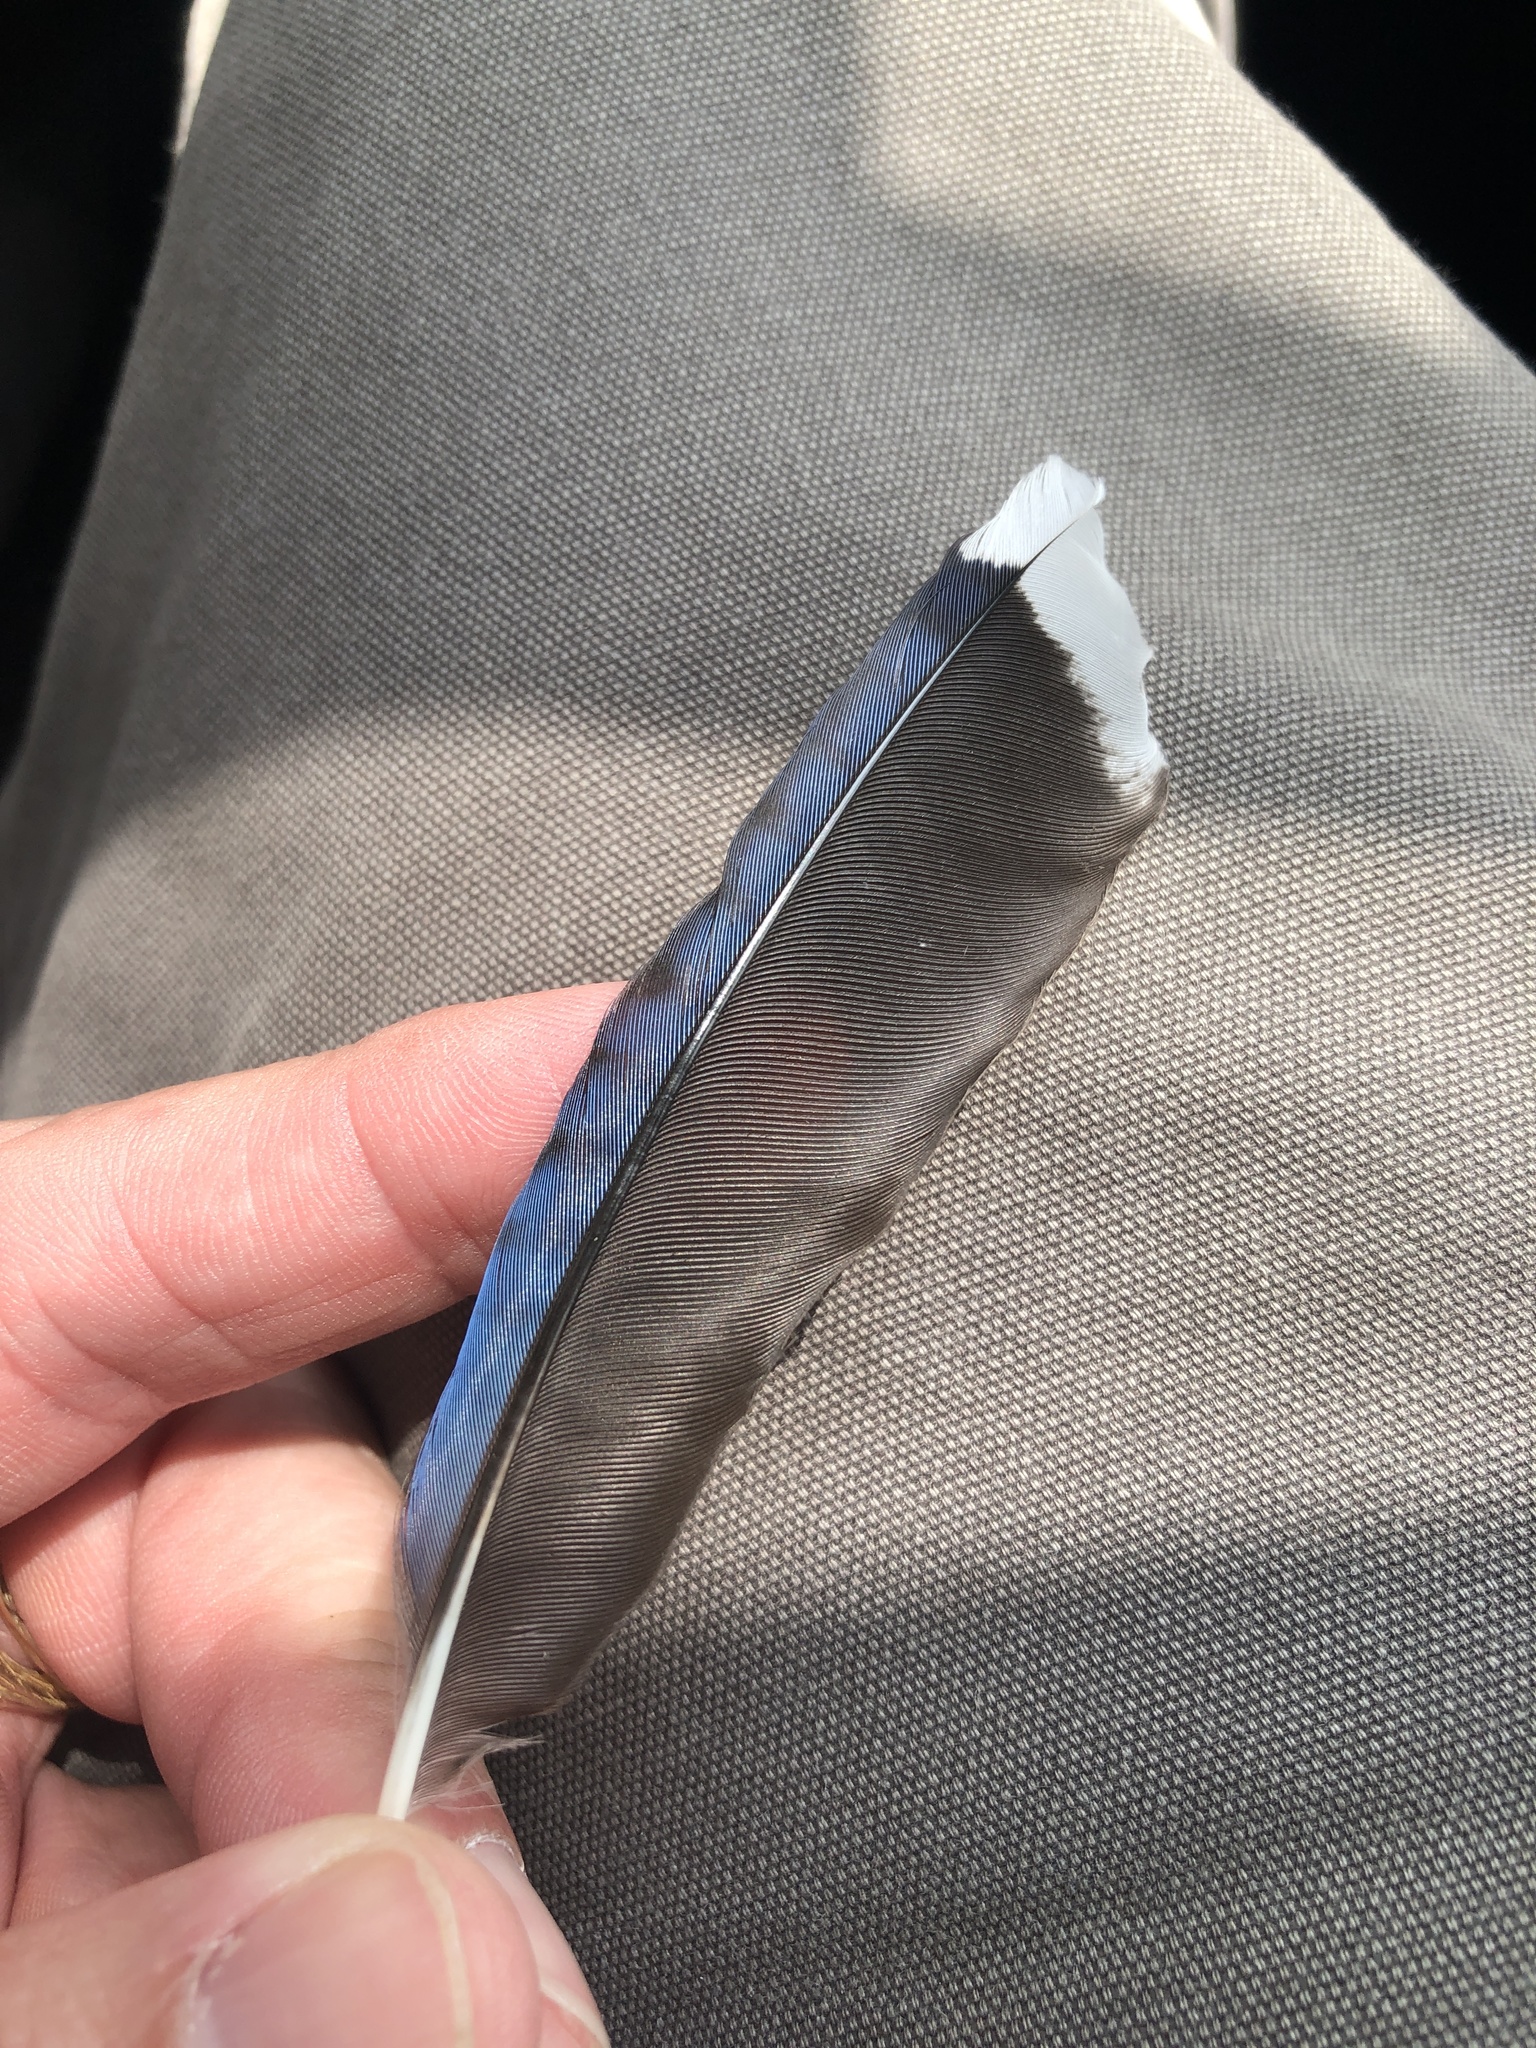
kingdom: Animalia
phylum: Chordata
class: Aves
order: Passeriformes
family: Corvidae
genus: Cyanocitta
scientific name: Cyanocitta cristata
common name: Blue jay
